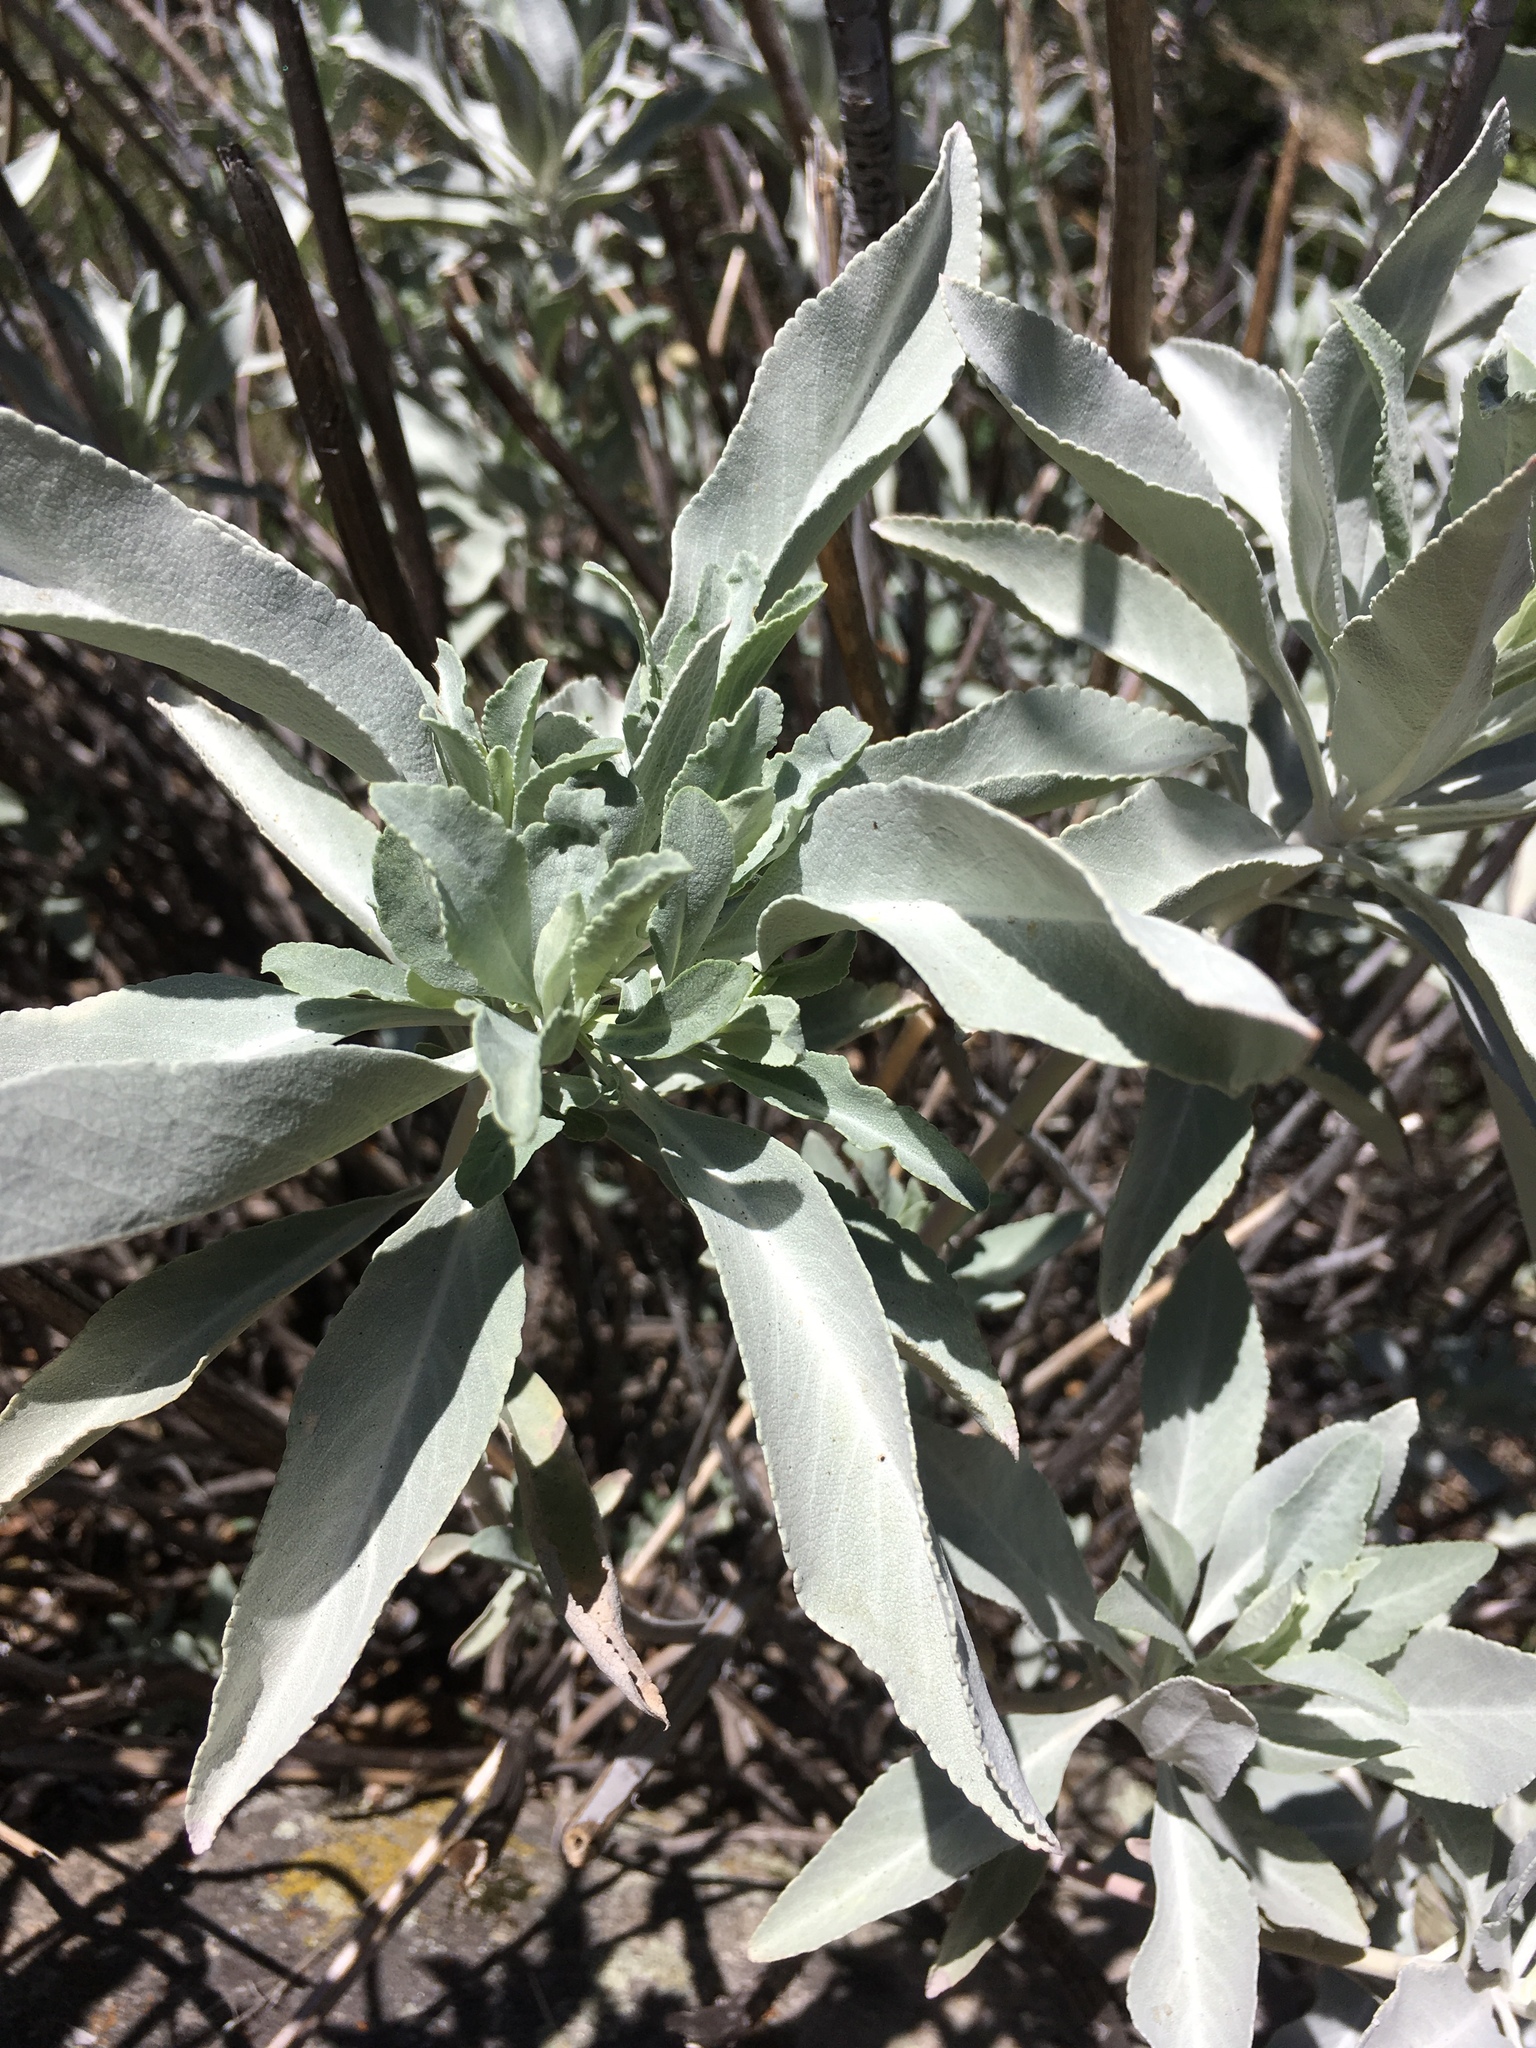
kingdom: Plantae
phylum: Tracheophyta
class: Magnoliopsida
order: Lamiales
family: Lamiaceae
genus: Salvia
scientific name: Salvia apiana
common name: White sage
